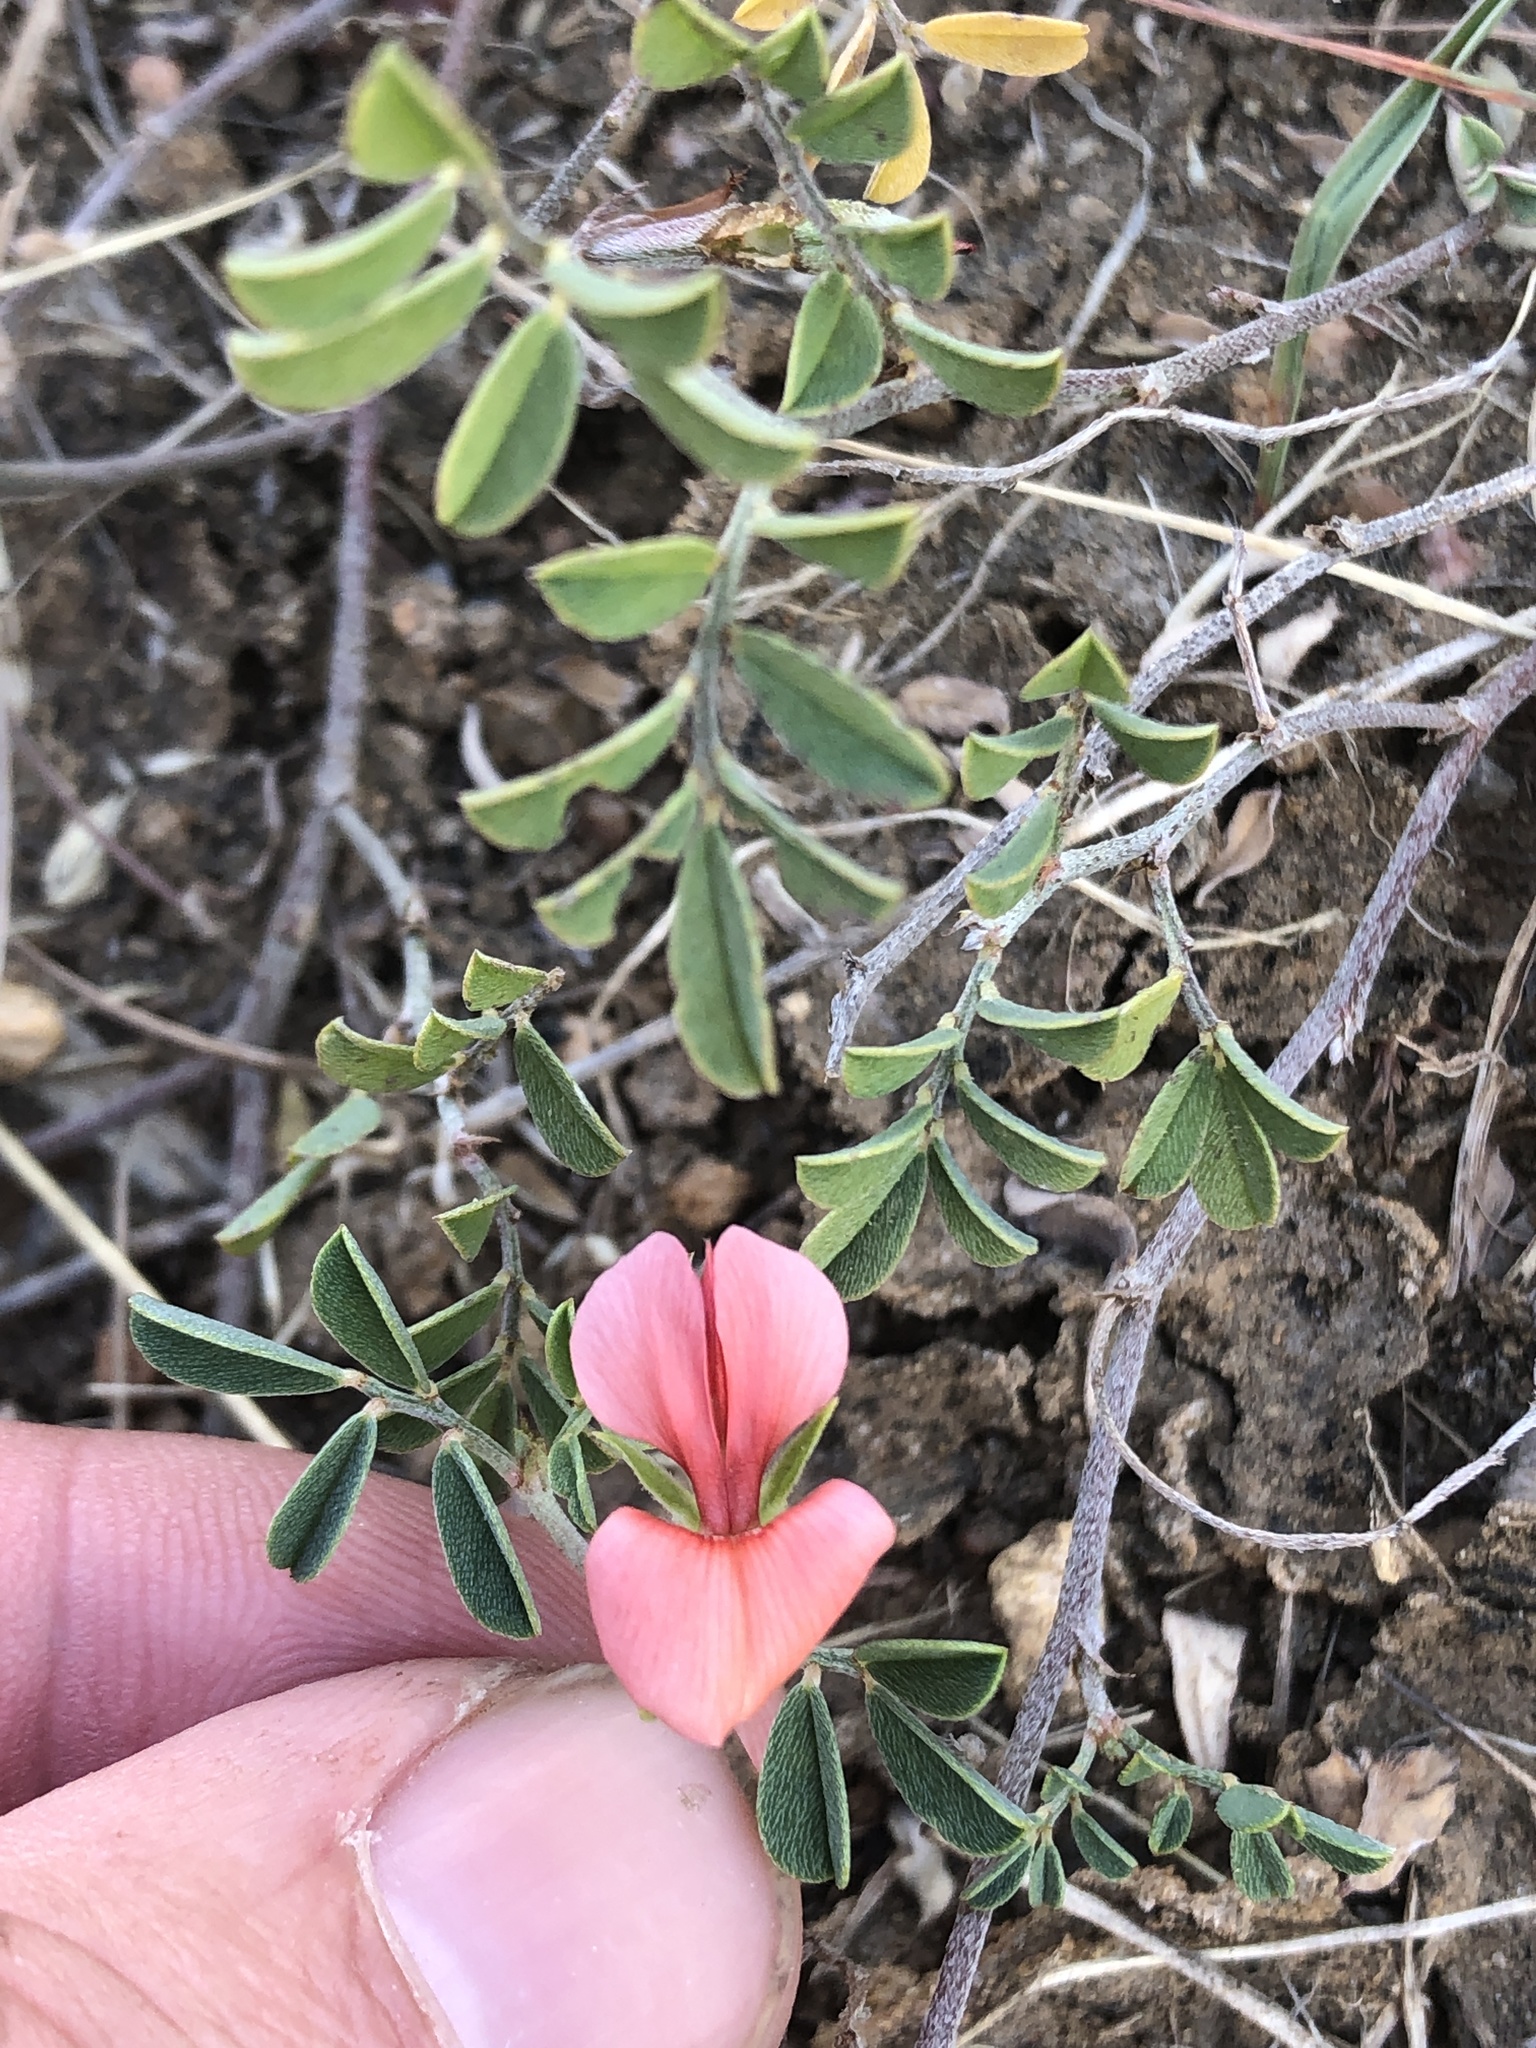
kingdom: Plantae
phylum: Tracheophyta
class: Magnoliopsida
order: Fabales
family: Fabaceae
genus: Indigofera
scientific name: Indigofera miniata
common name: Coast indigo
